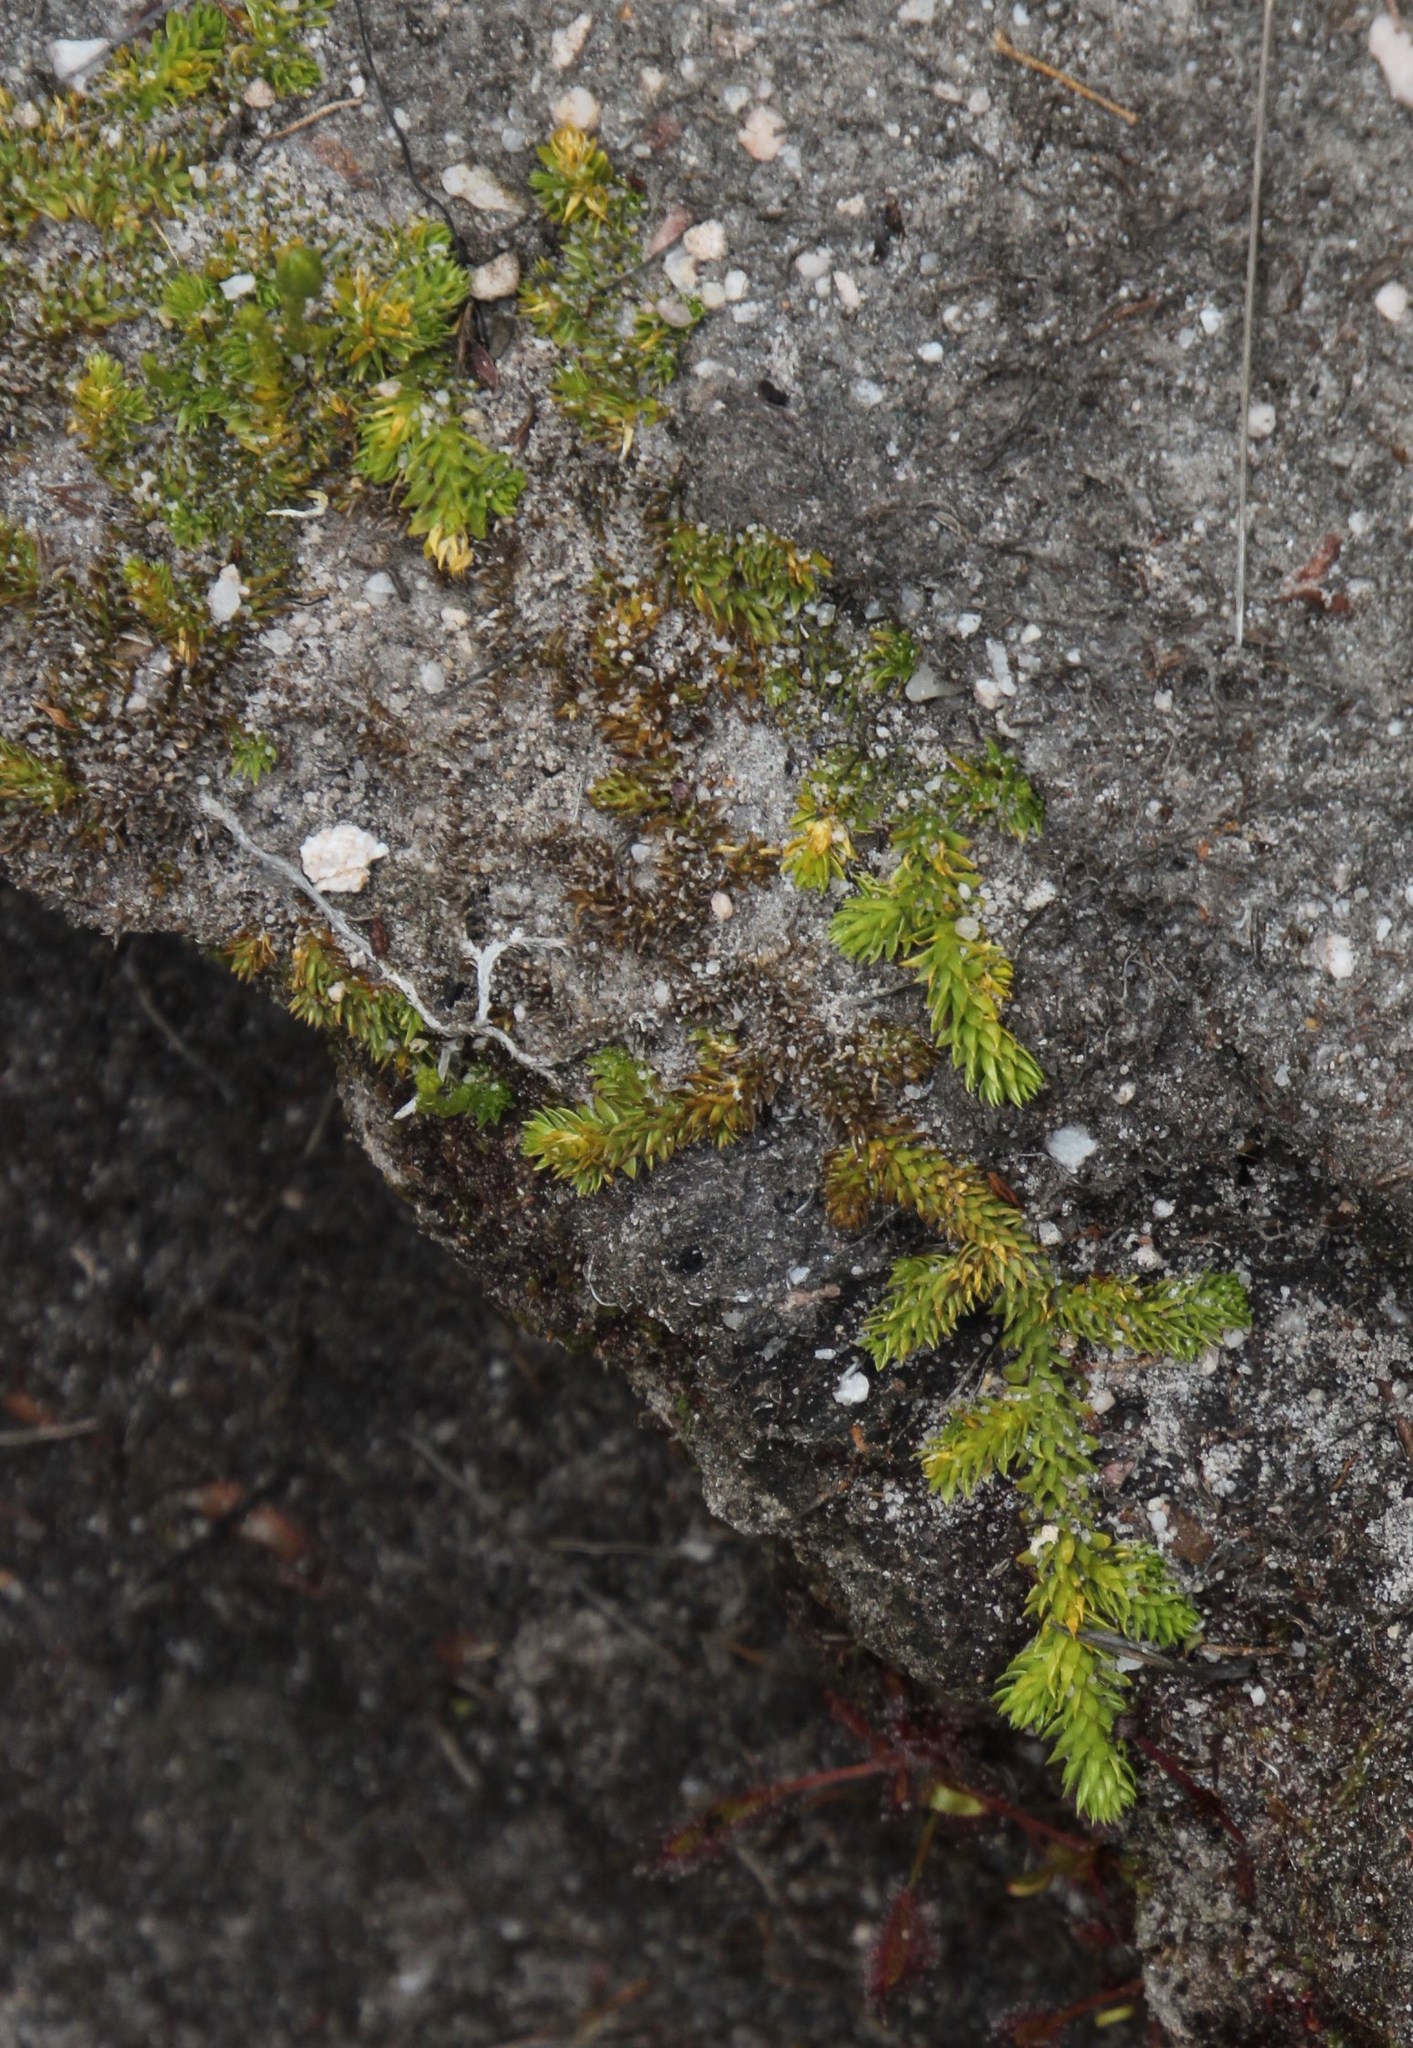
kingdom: Plantae
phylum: Tracheophyta
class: Lycopodiopsida
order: Lycopodiales
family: Lycopodiaceae
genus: Pseudolycopodiella
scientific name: Pseudolycopodiella caroliniana
